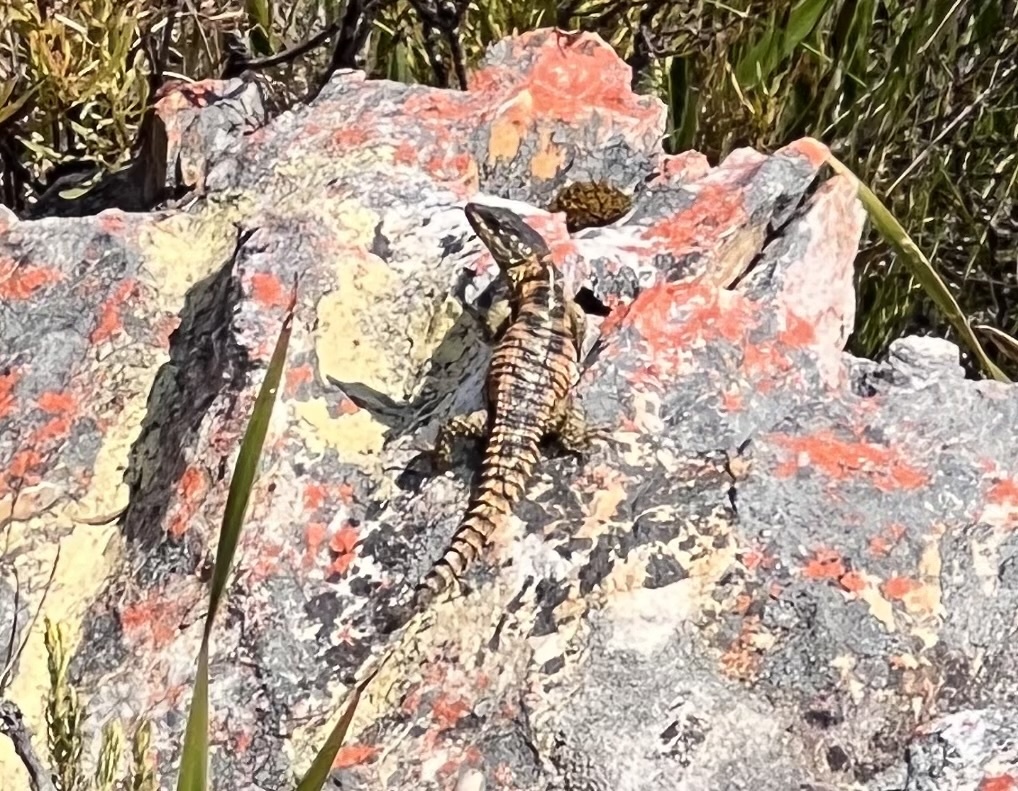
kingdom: Animalia
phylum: Chordata
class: Squamata
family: Cordylidae
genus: Cordylus
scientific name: Cordylus cordylus
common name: Cape girdled lizard
